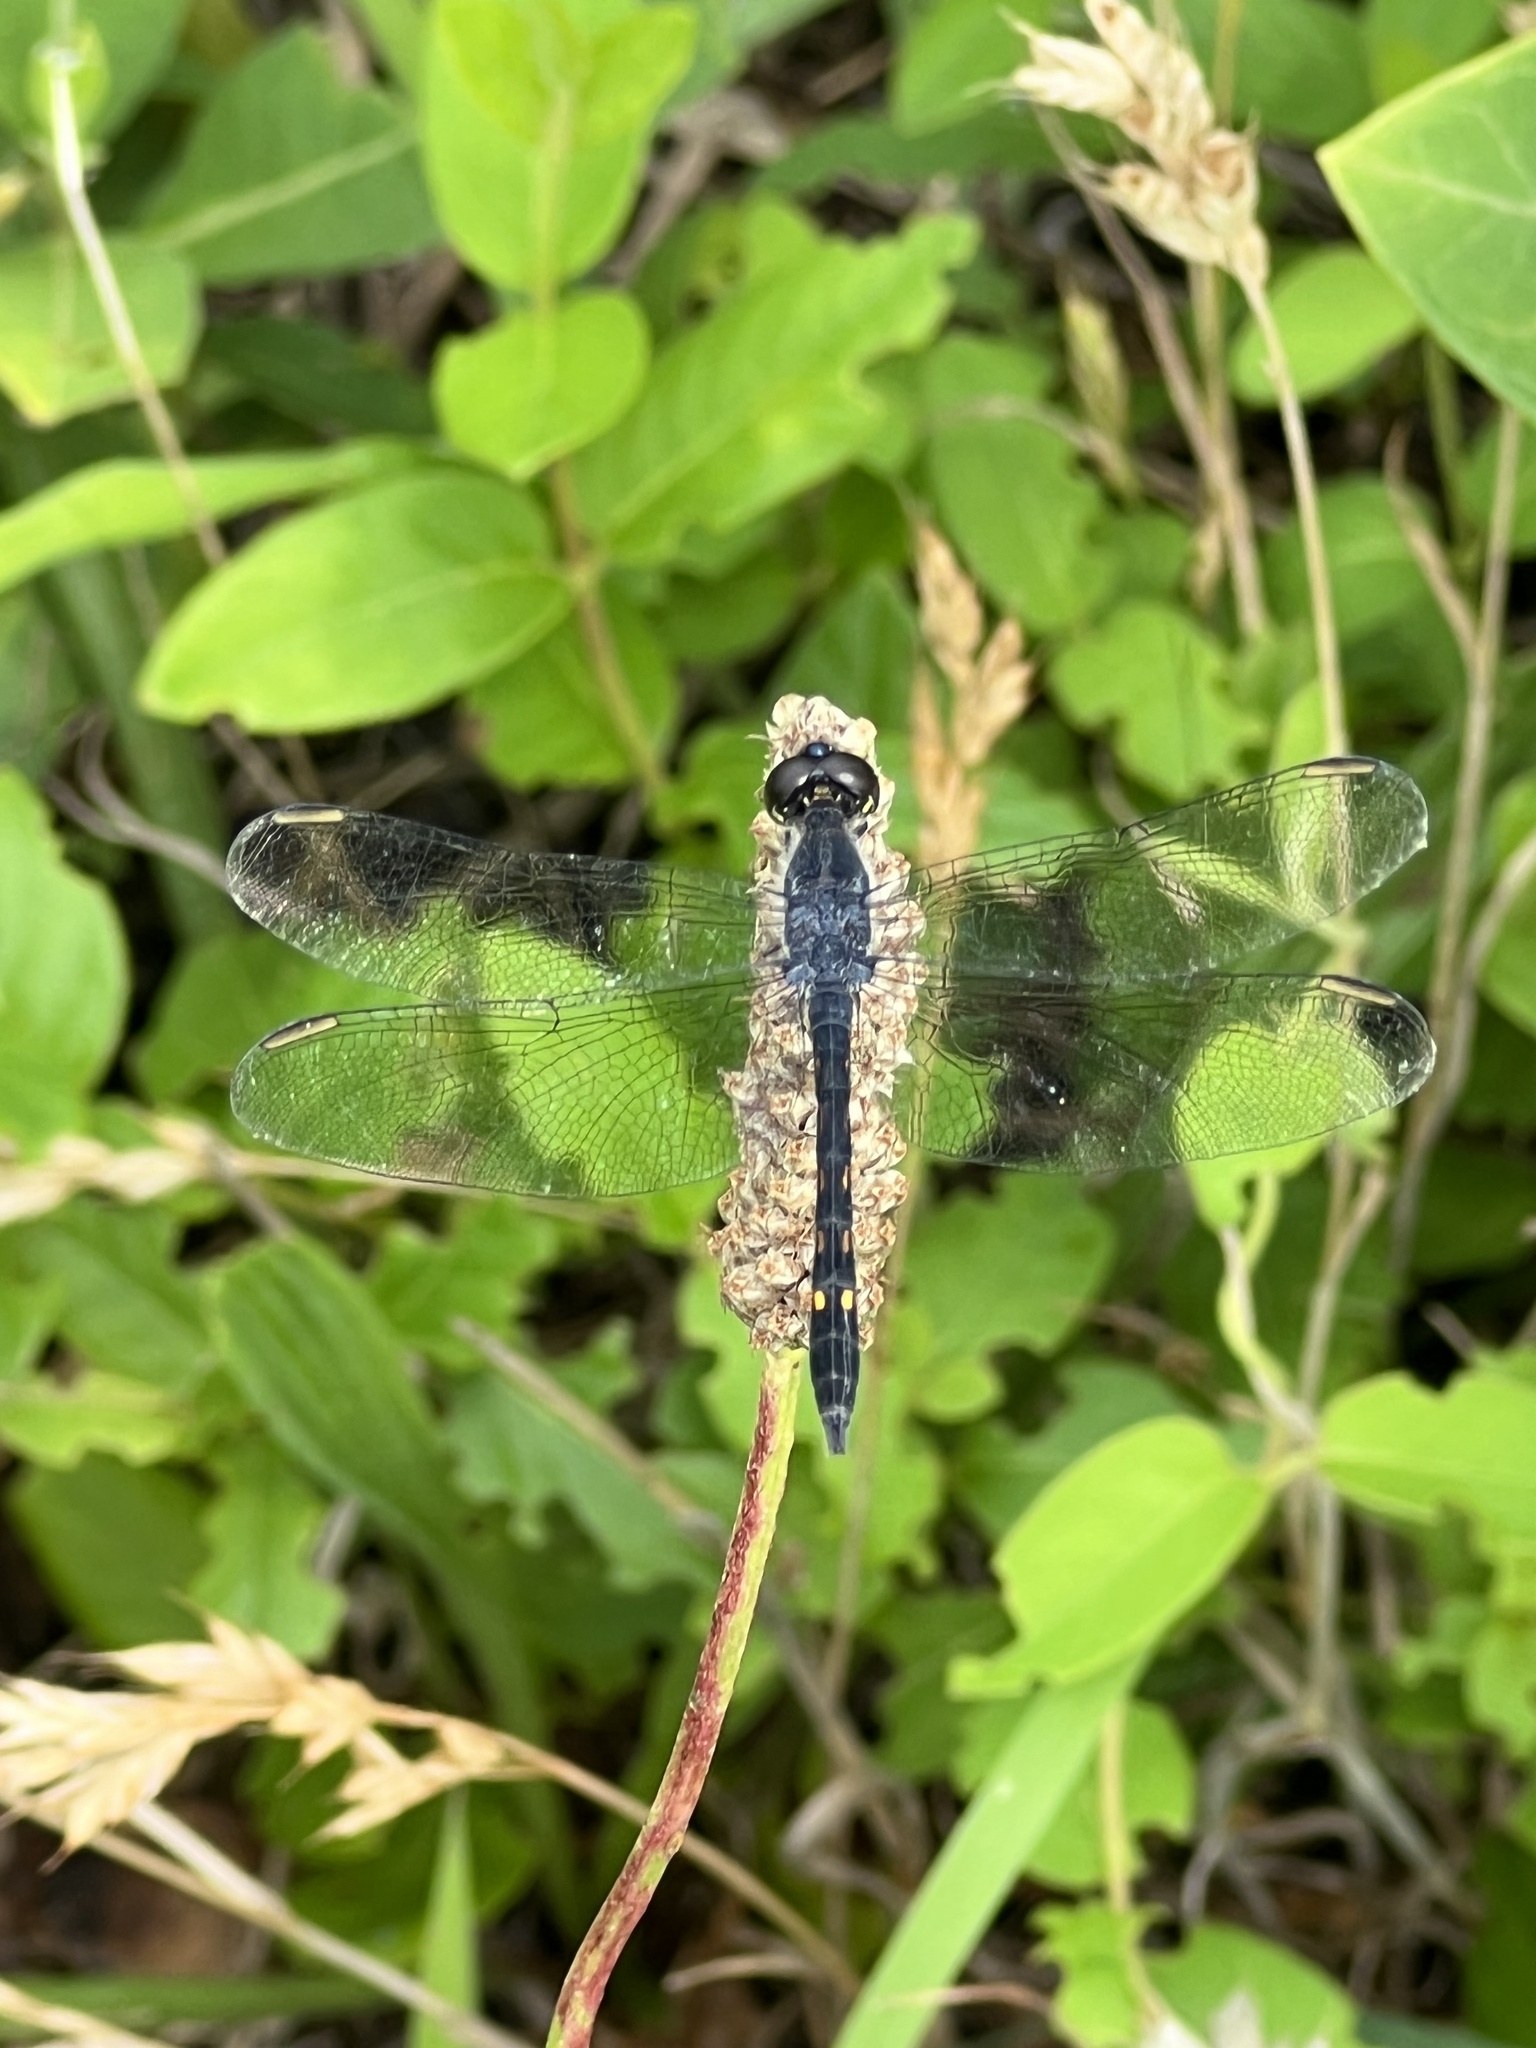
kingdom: Animalia
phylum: Arthropoda
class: Insecta
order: Odonata
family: Libellulidae
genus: Erythrodiplax
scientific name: Erythrodiplax berenice
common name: Seaside dragonlet
